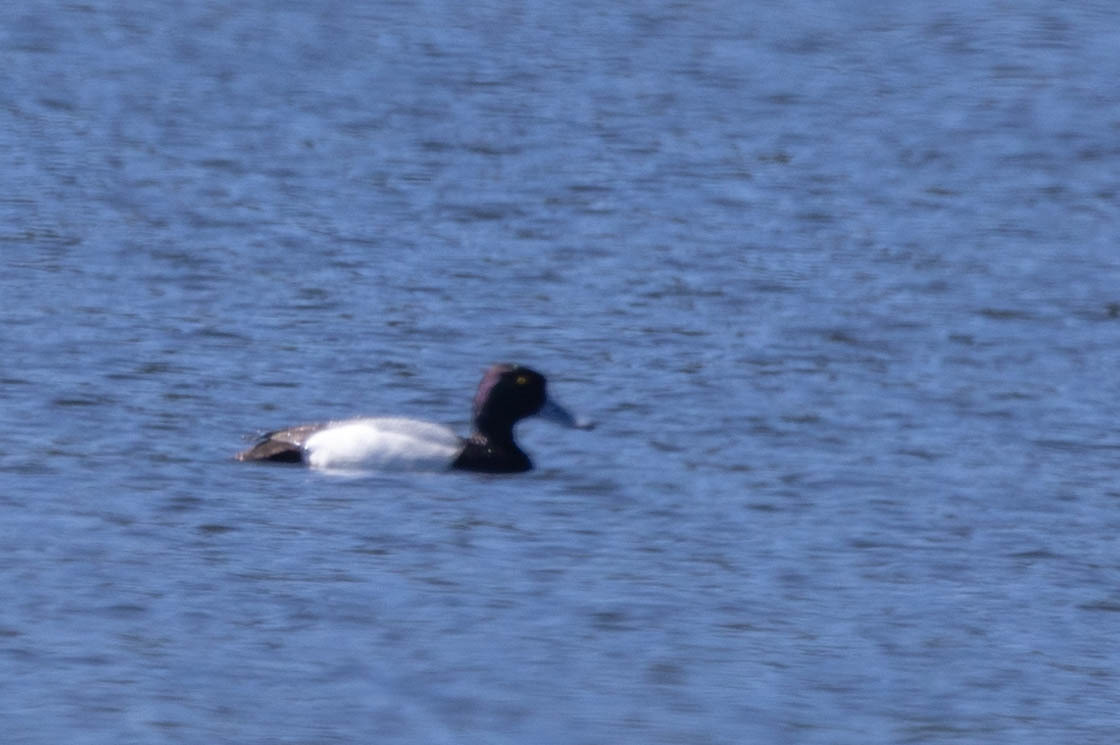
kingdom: Animalia
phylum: Chordata
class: Aves
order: Anseriformes
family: Anatidae
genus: Aythya
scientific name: Aythya affinis
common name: Lesser scaup
